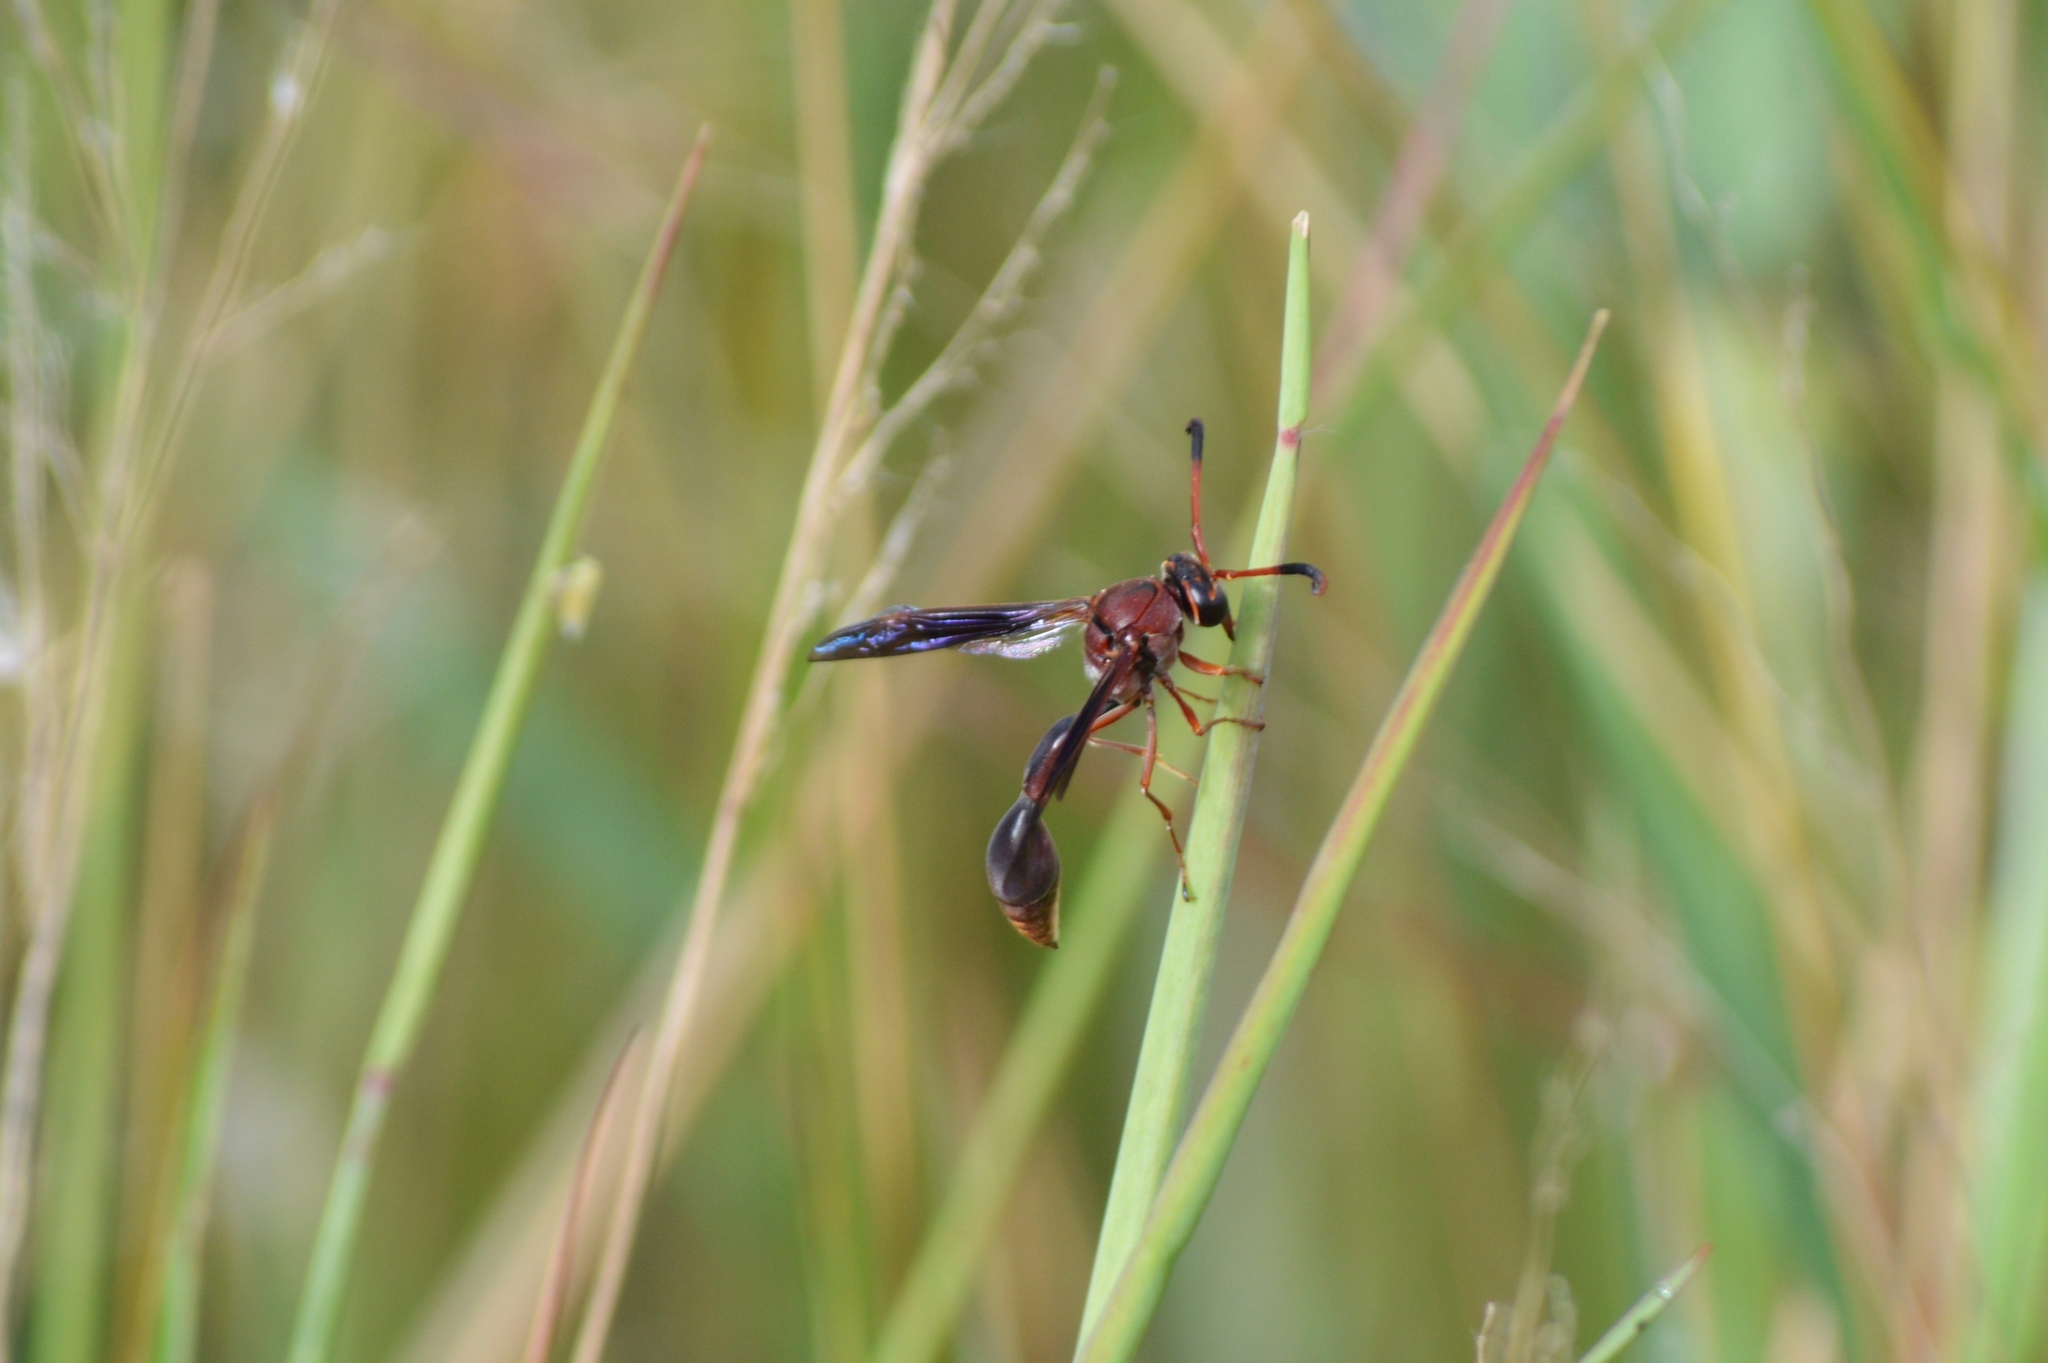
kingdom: Animalia
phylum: Arthropoda
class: Insecta
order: Hymenoptera
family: Eumenidae
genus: Zeta
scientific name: Zeta argillaceum
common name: Potter wasp
